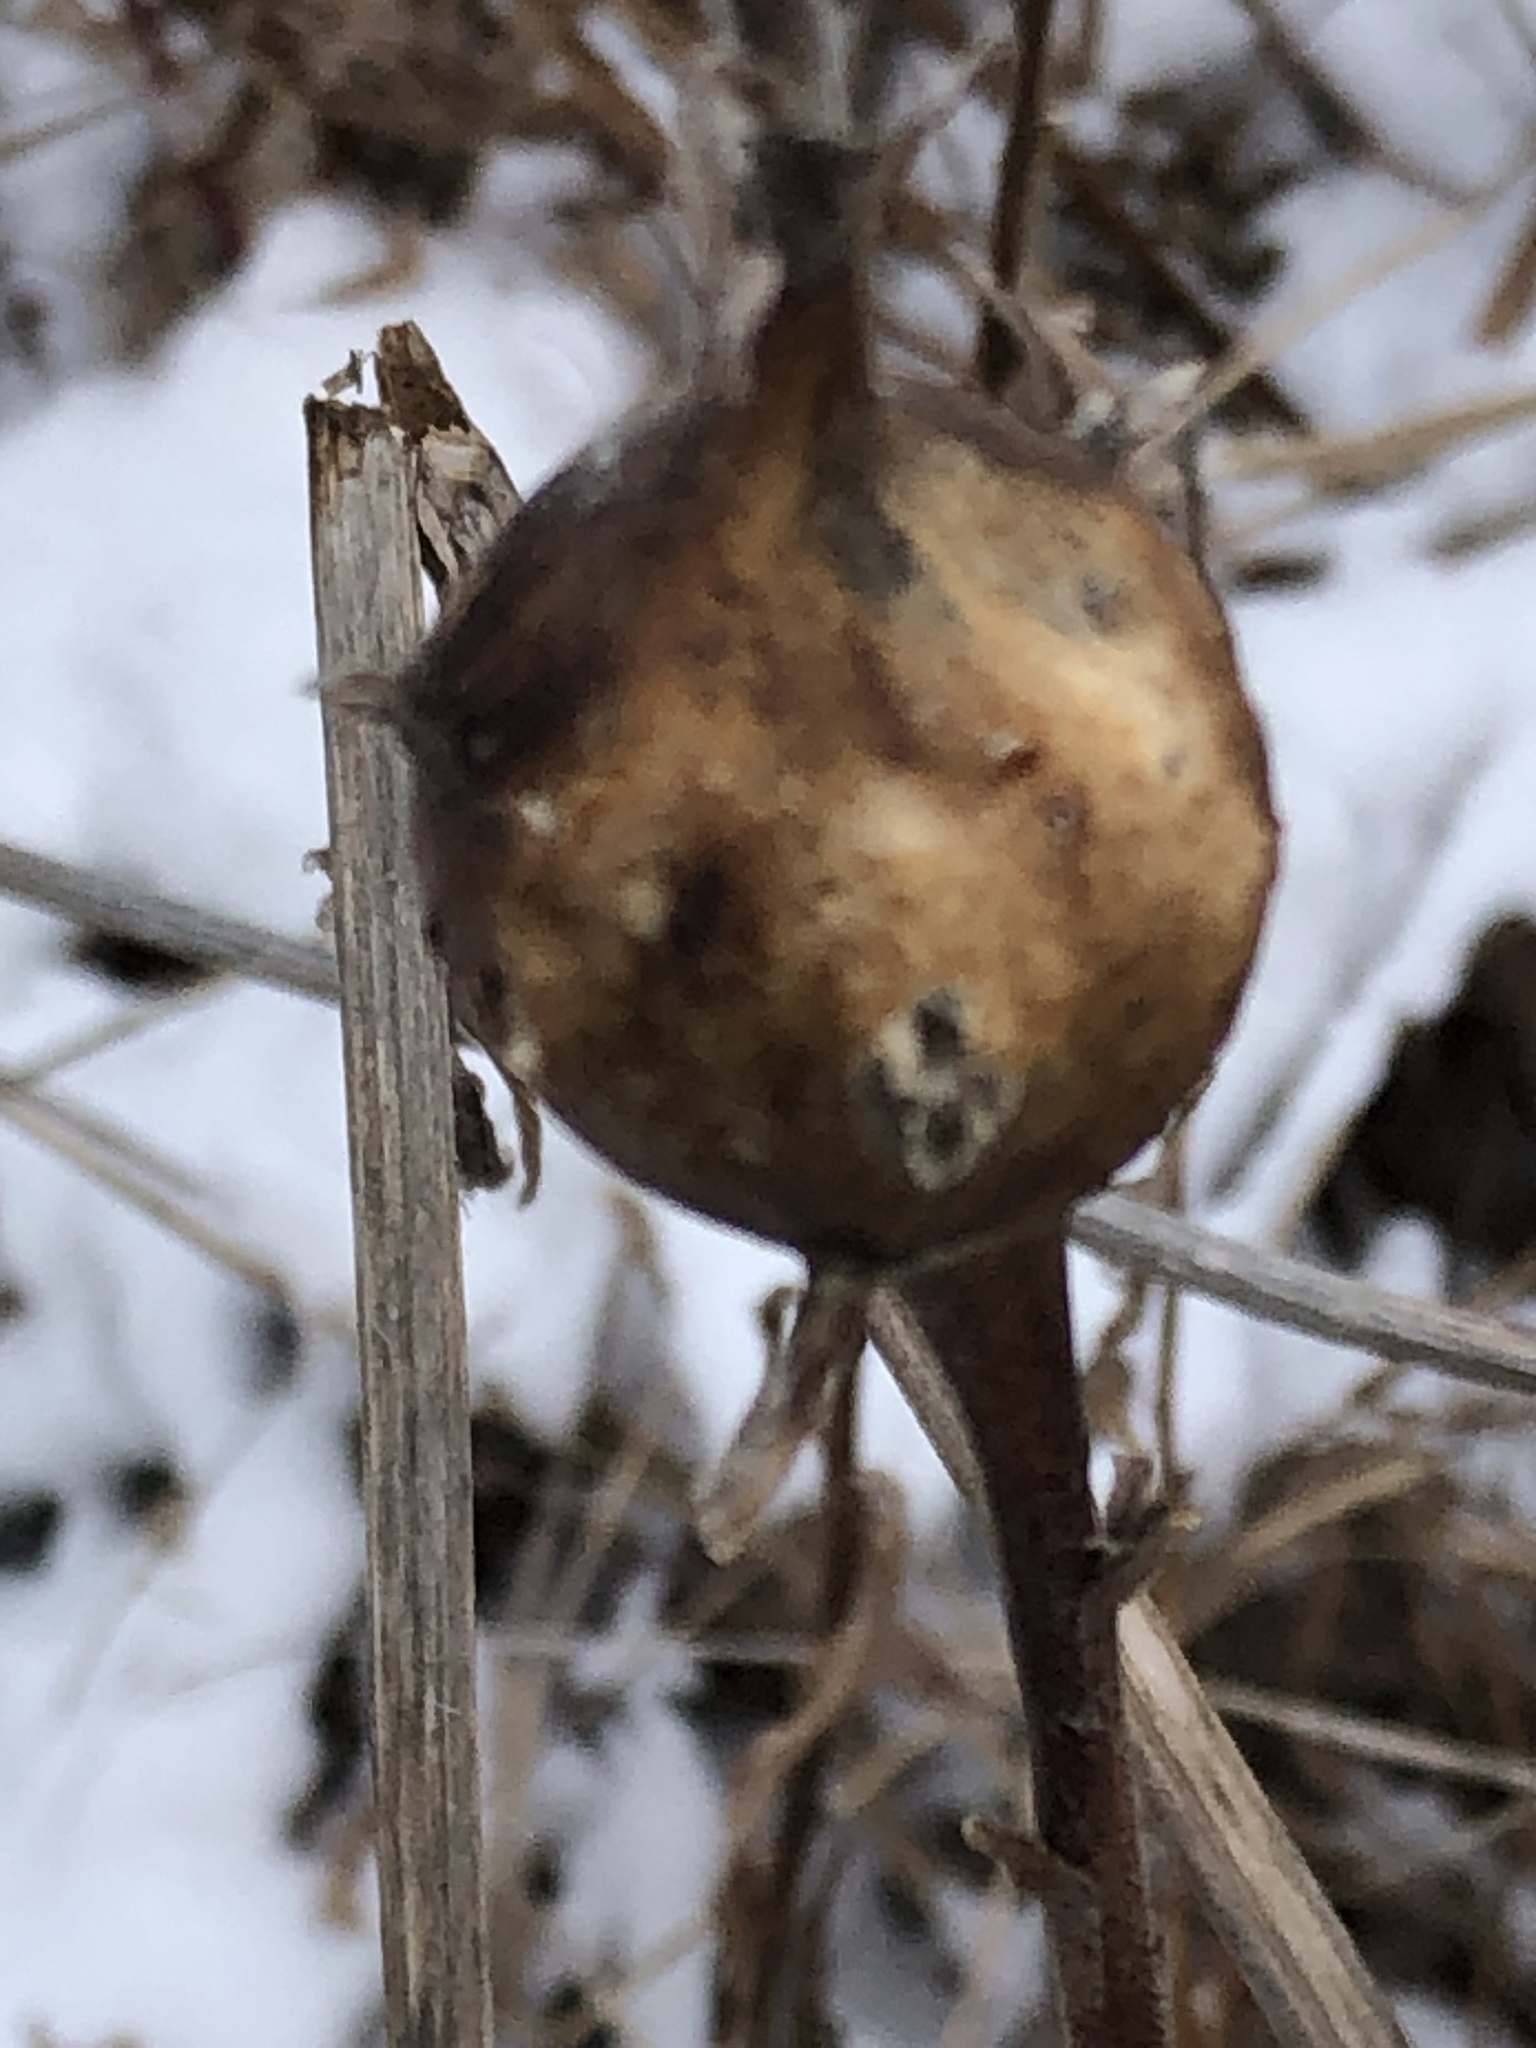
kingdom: Animalia
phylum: Arthropoda
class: Insecta
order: Diptera
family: Tephritidae
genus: Eurosta
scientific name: Eurosta solidaginis
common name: Goldenrod gall fly
